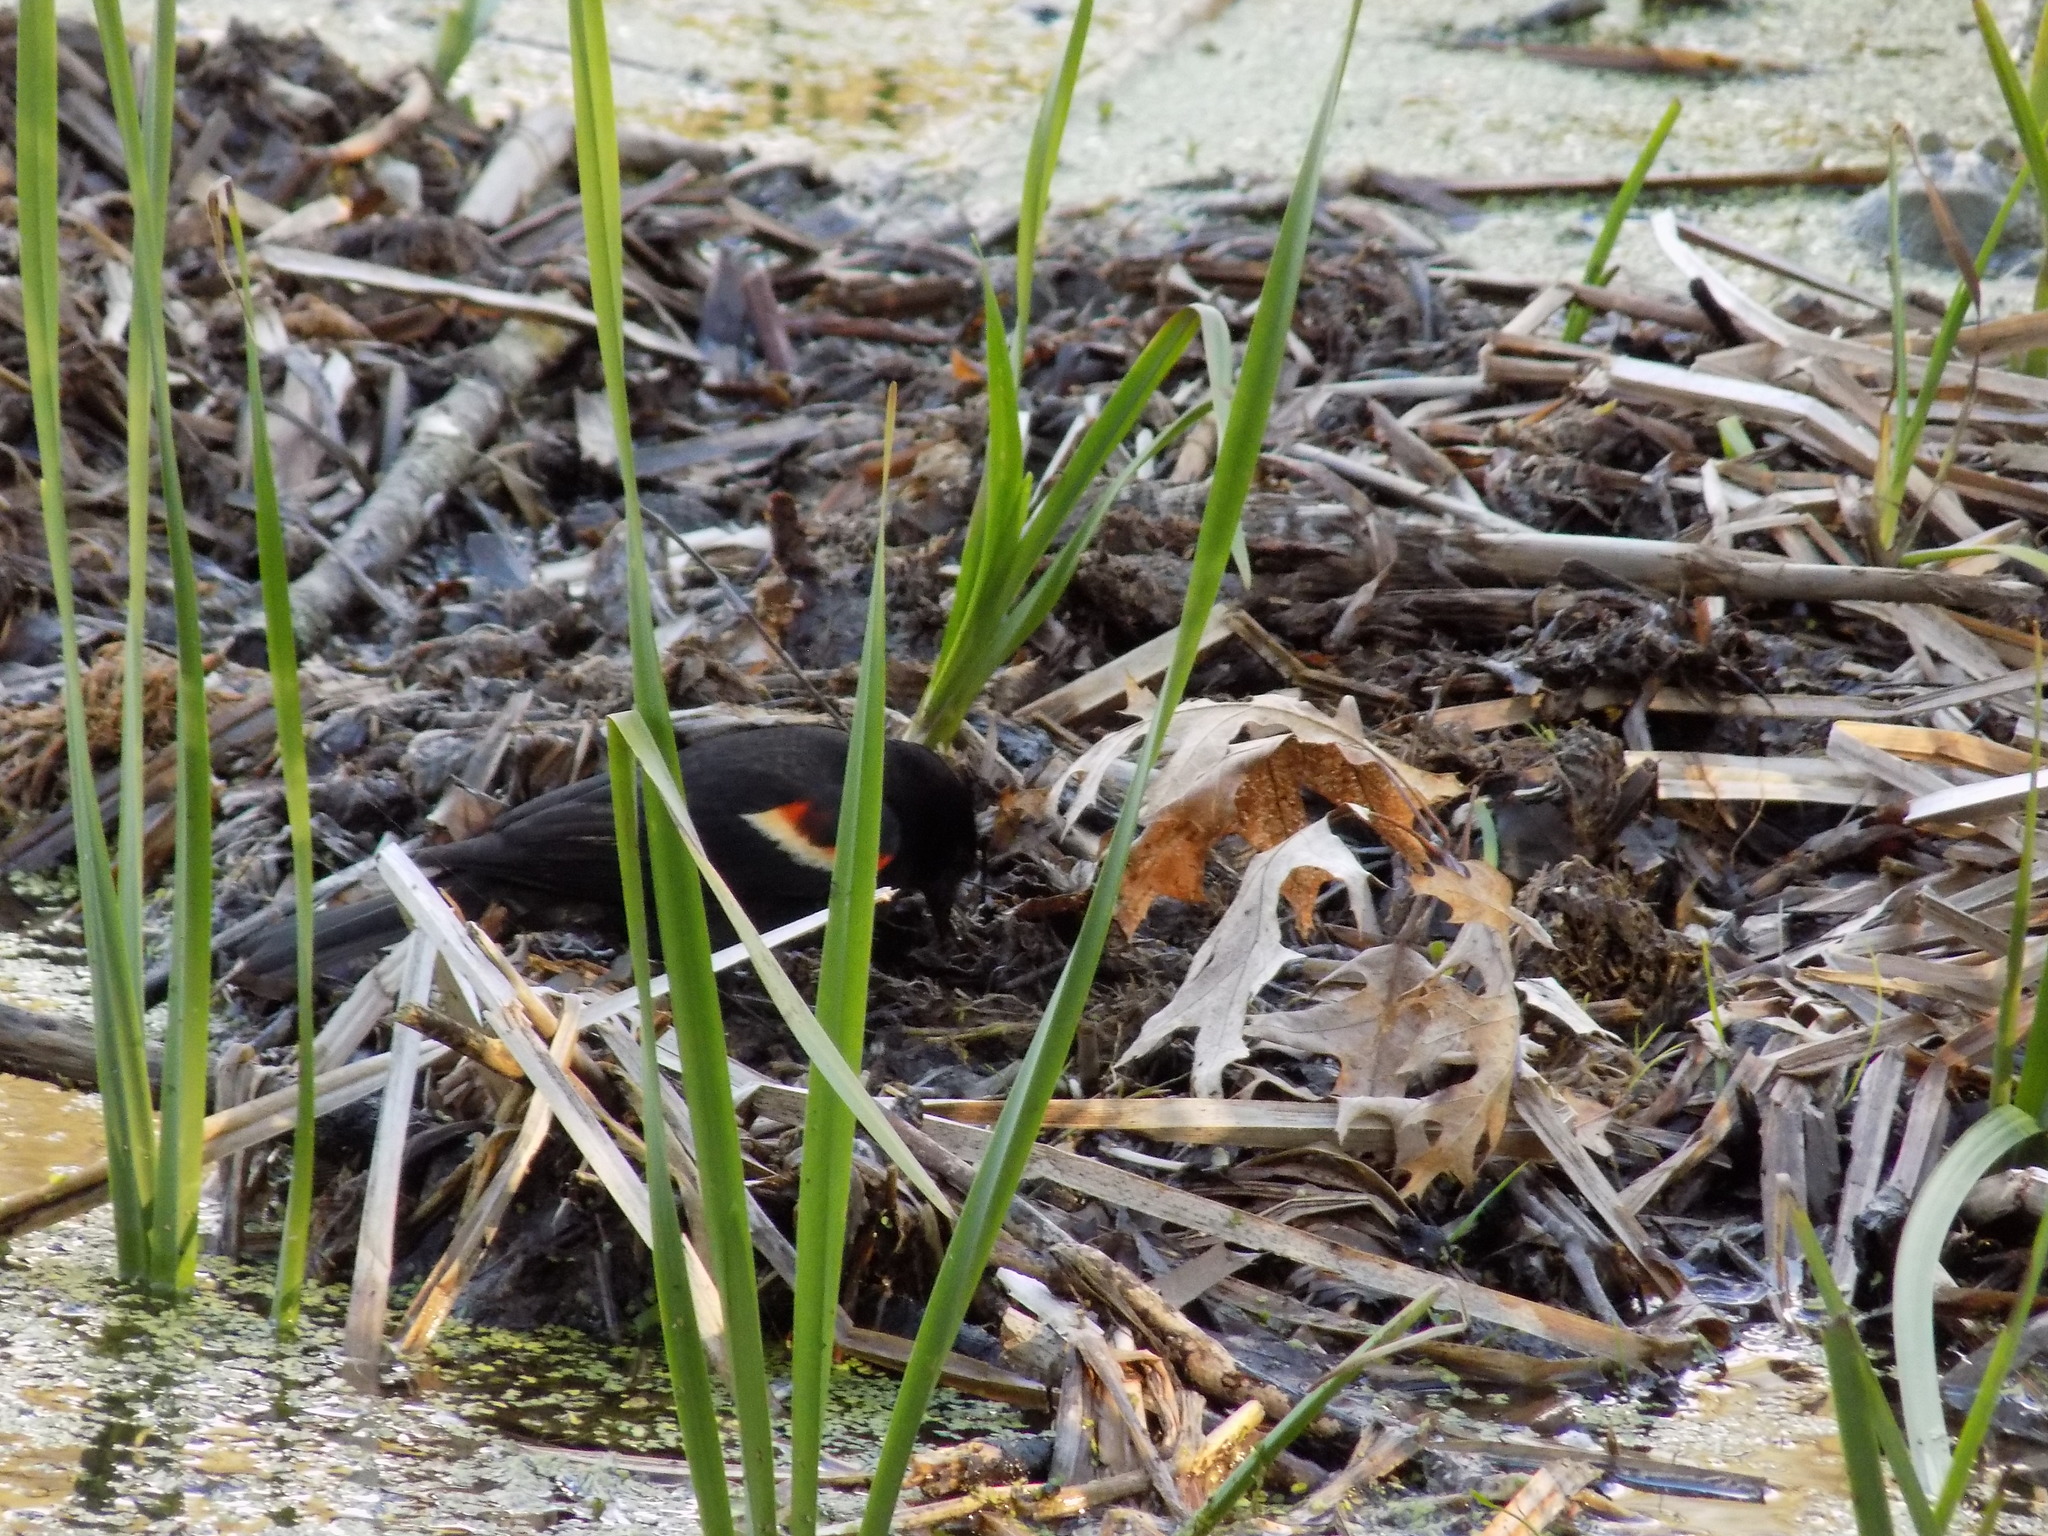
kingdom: Animalia
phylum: Chordata
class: Aves
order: Passeriformes
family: Icteridae
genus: Agelaius
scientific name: Agelaius phoeniceus
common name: Red-winged blackbird
